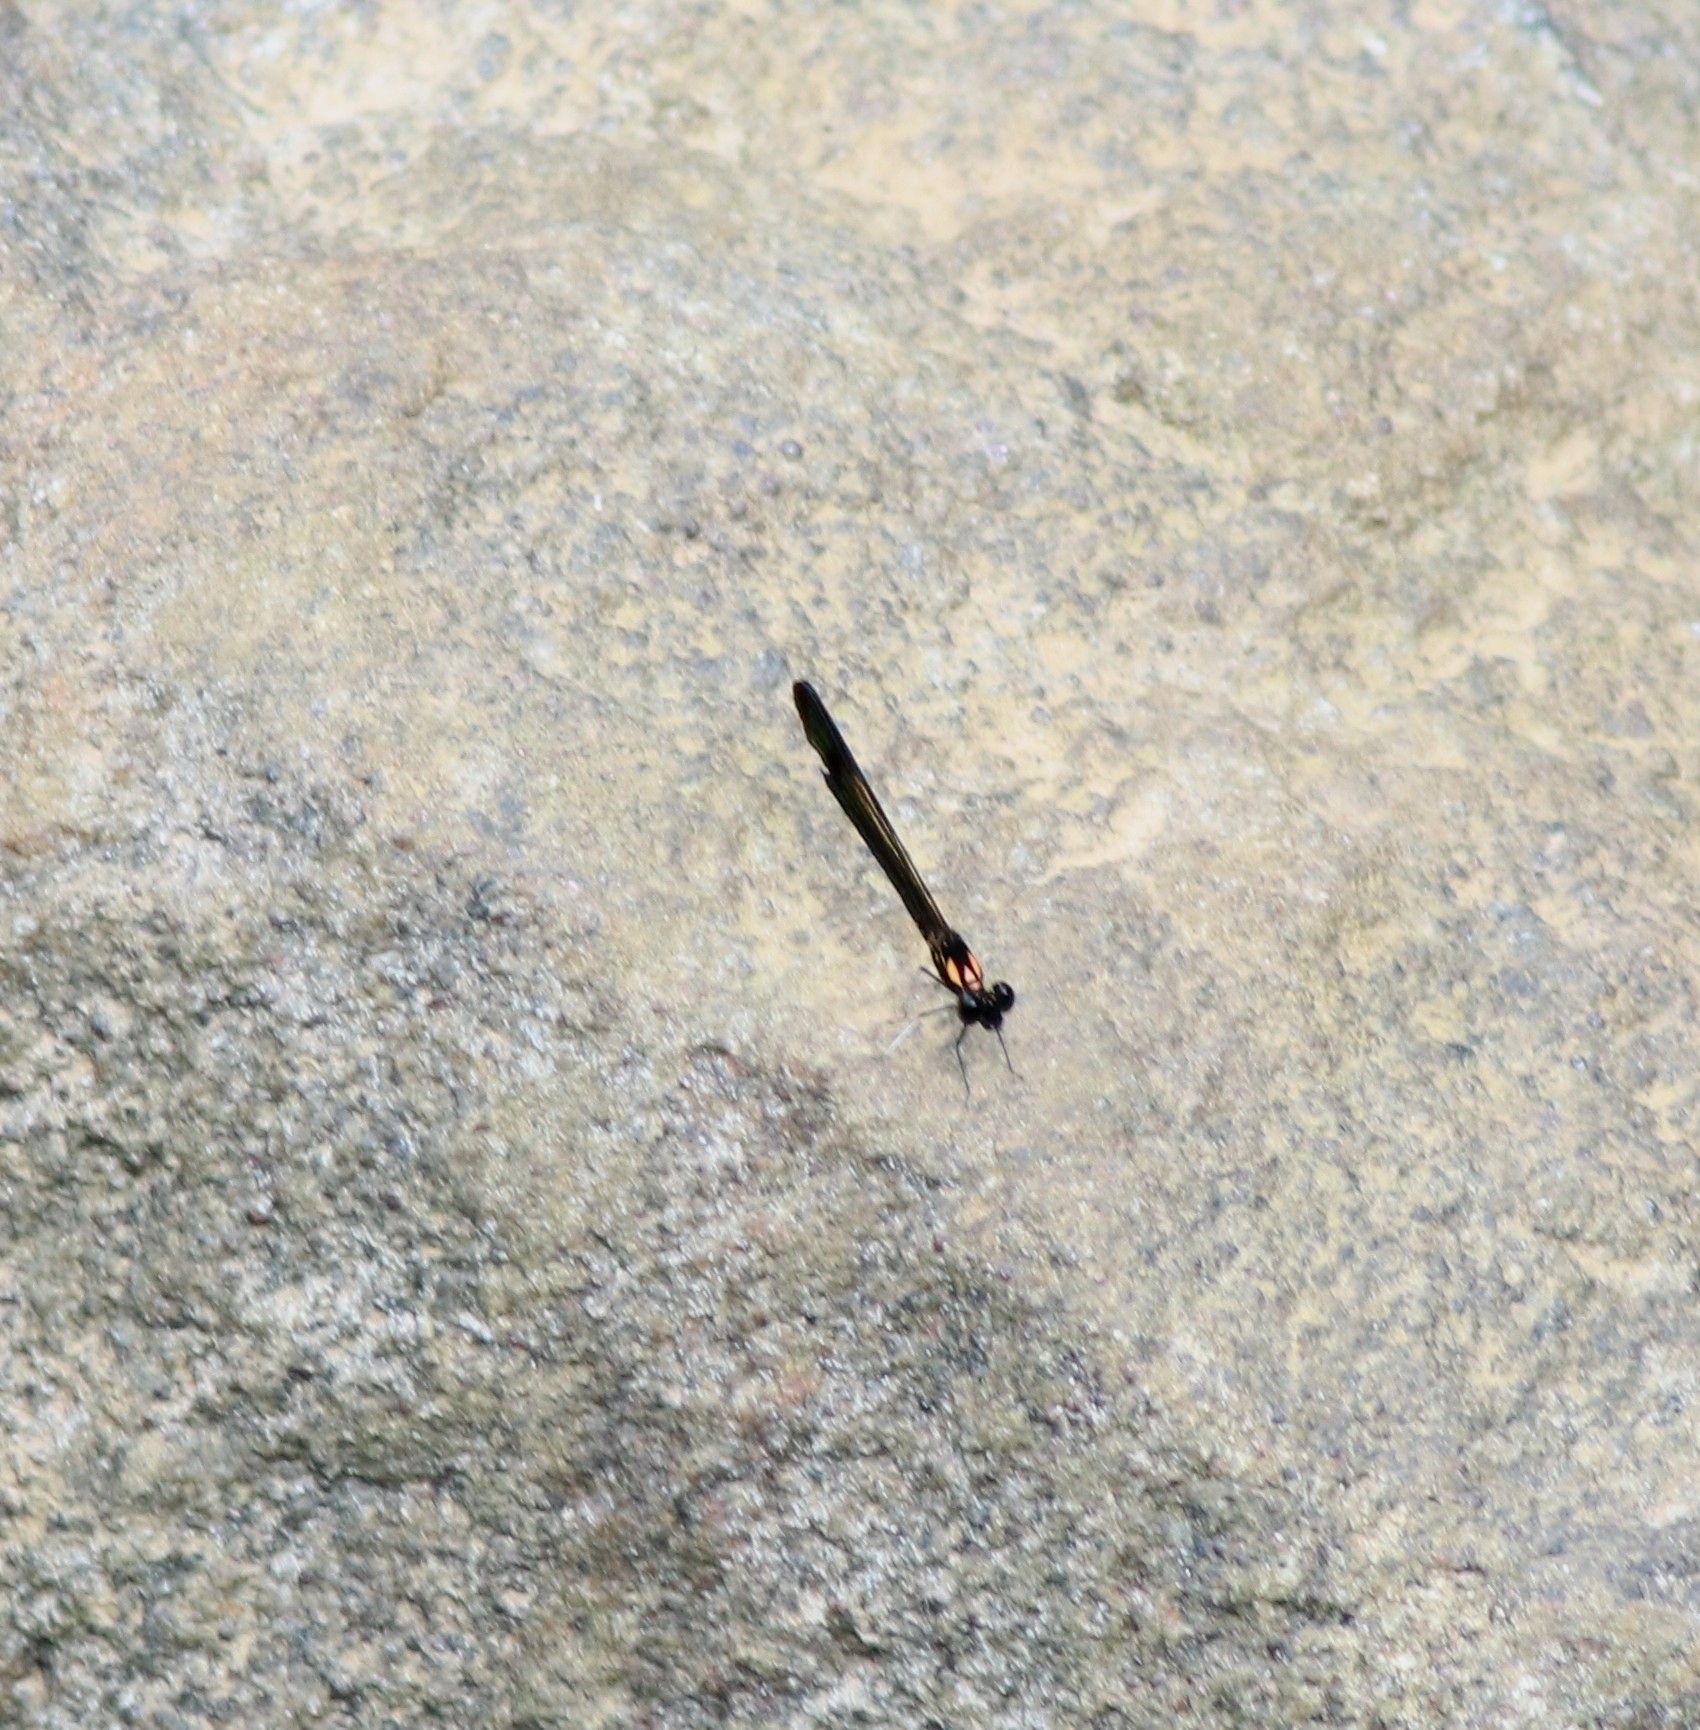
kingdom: Animalia
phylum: Arthropoda
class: Insecta
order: Odonata
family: Chlorocyphidae
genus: Heliocypha
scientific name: Heliocypha bisignata
